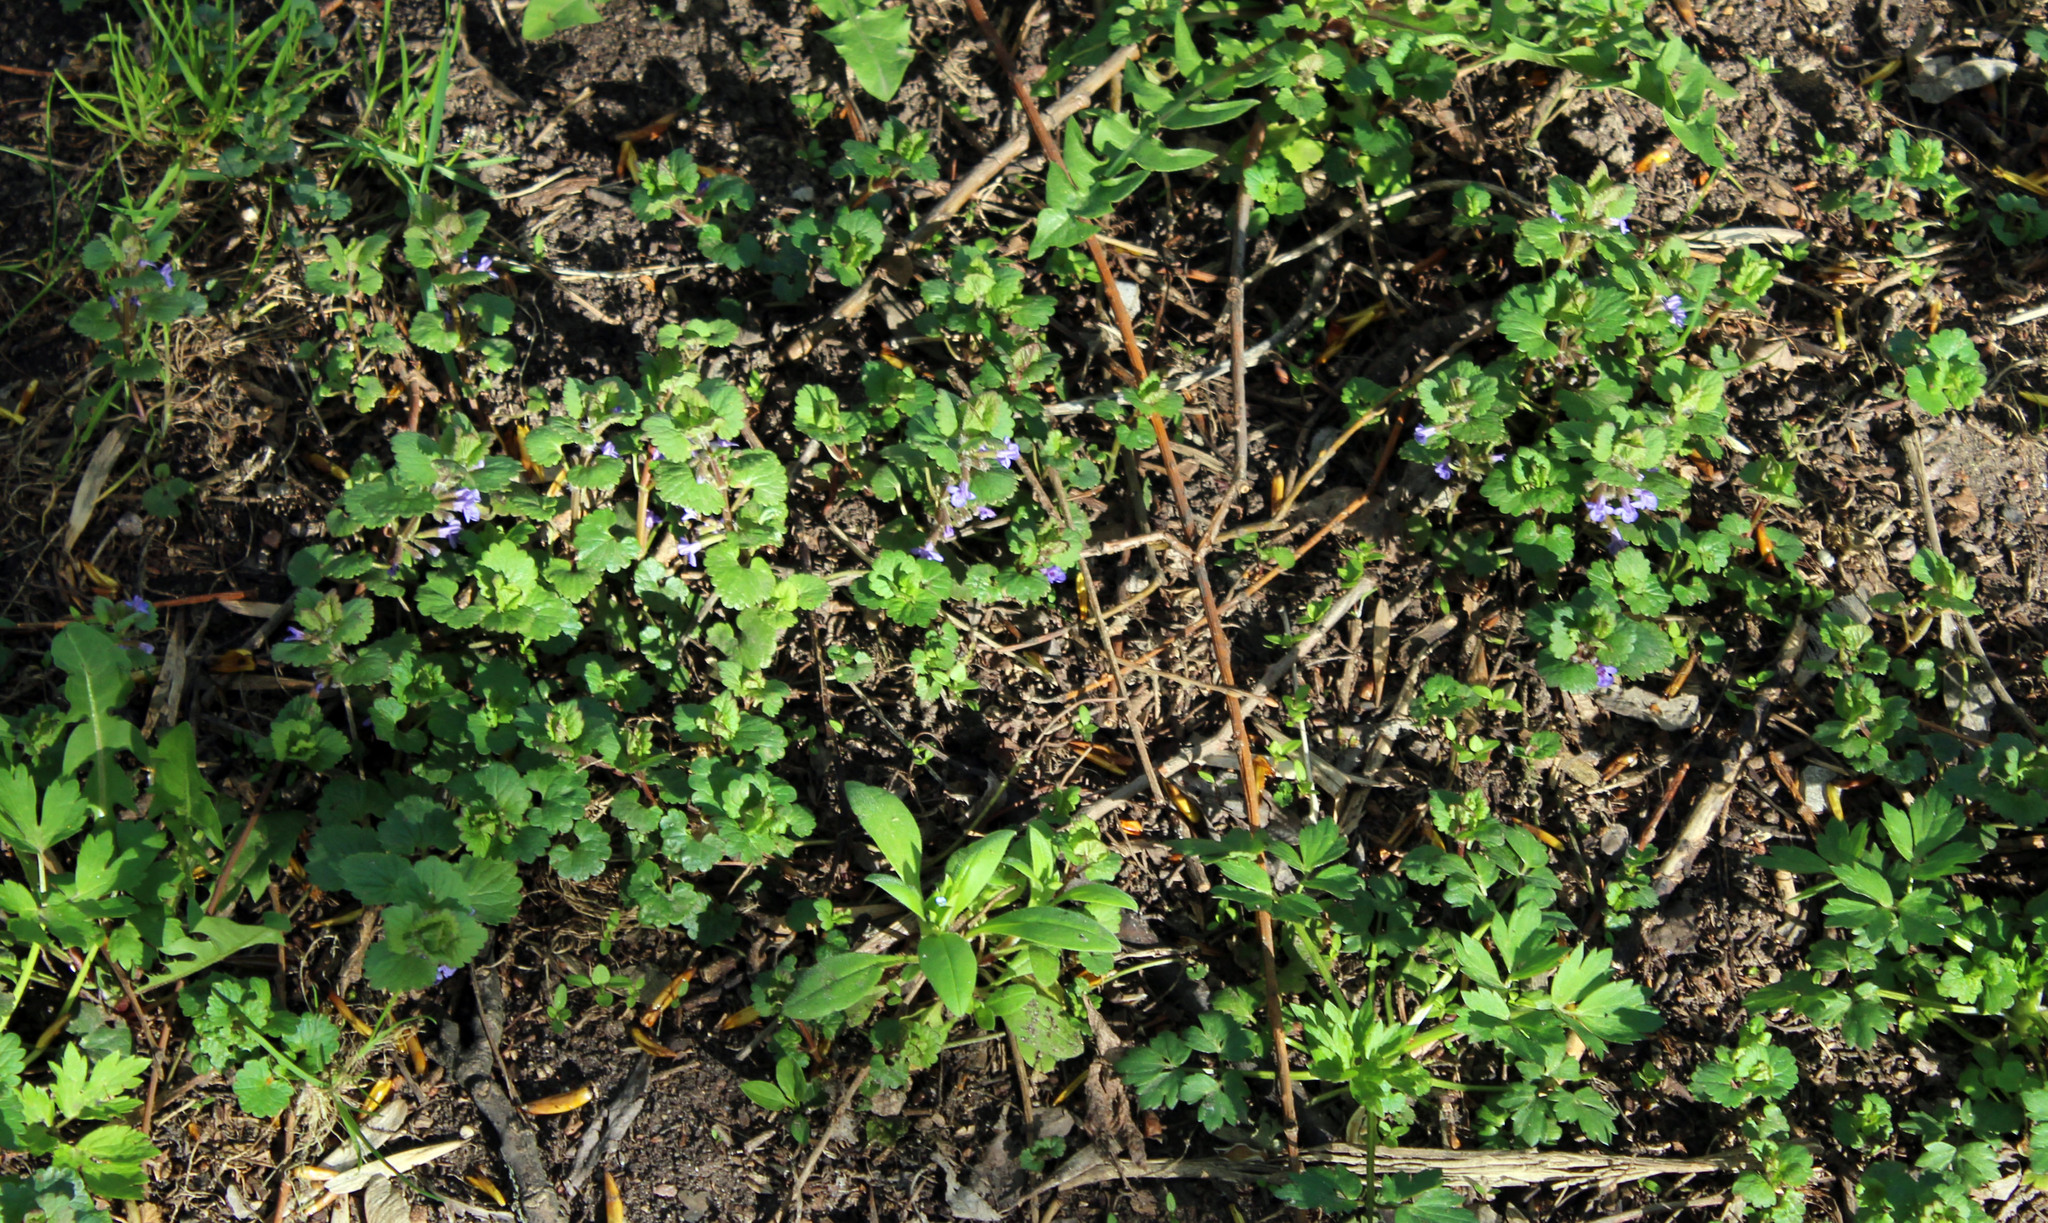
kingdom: Plantae
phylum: Tracheophyta
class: Magnoliopsida
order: Lamiales
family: Lamiaceae
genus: Glechoma
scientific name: Glechoma hederacea
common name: Ground ivy
